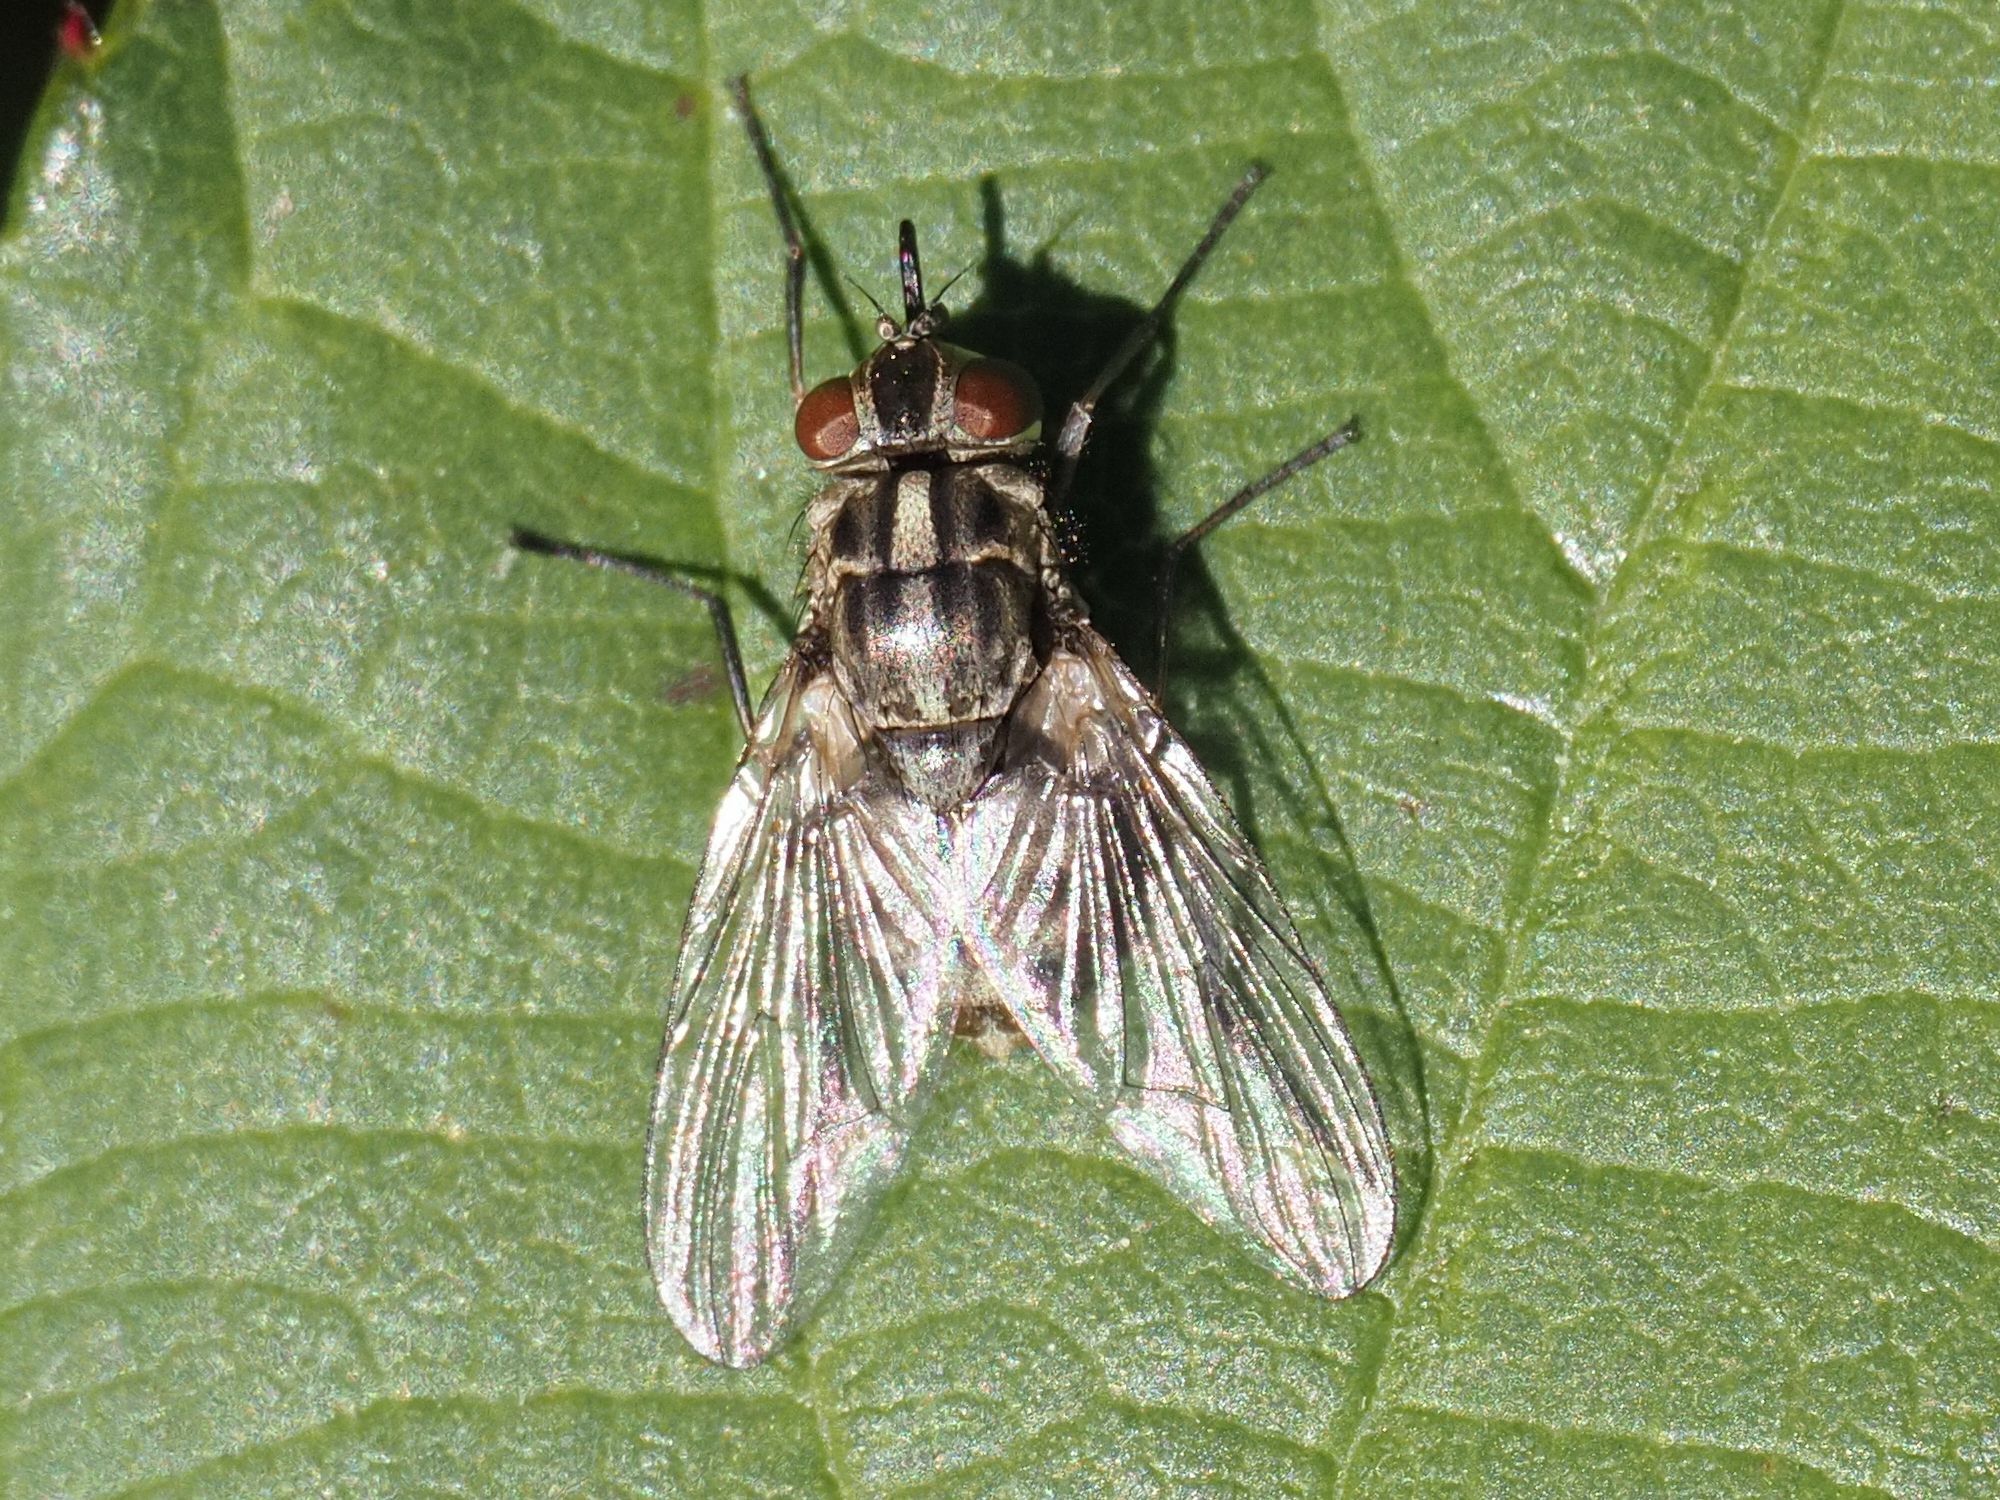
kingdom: Animalia
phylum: Arthropoda
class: Insecta
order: Diptera
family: Muscidae
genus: Stomoxys
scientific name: Stomoxys calcitrans
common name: Stable fly
